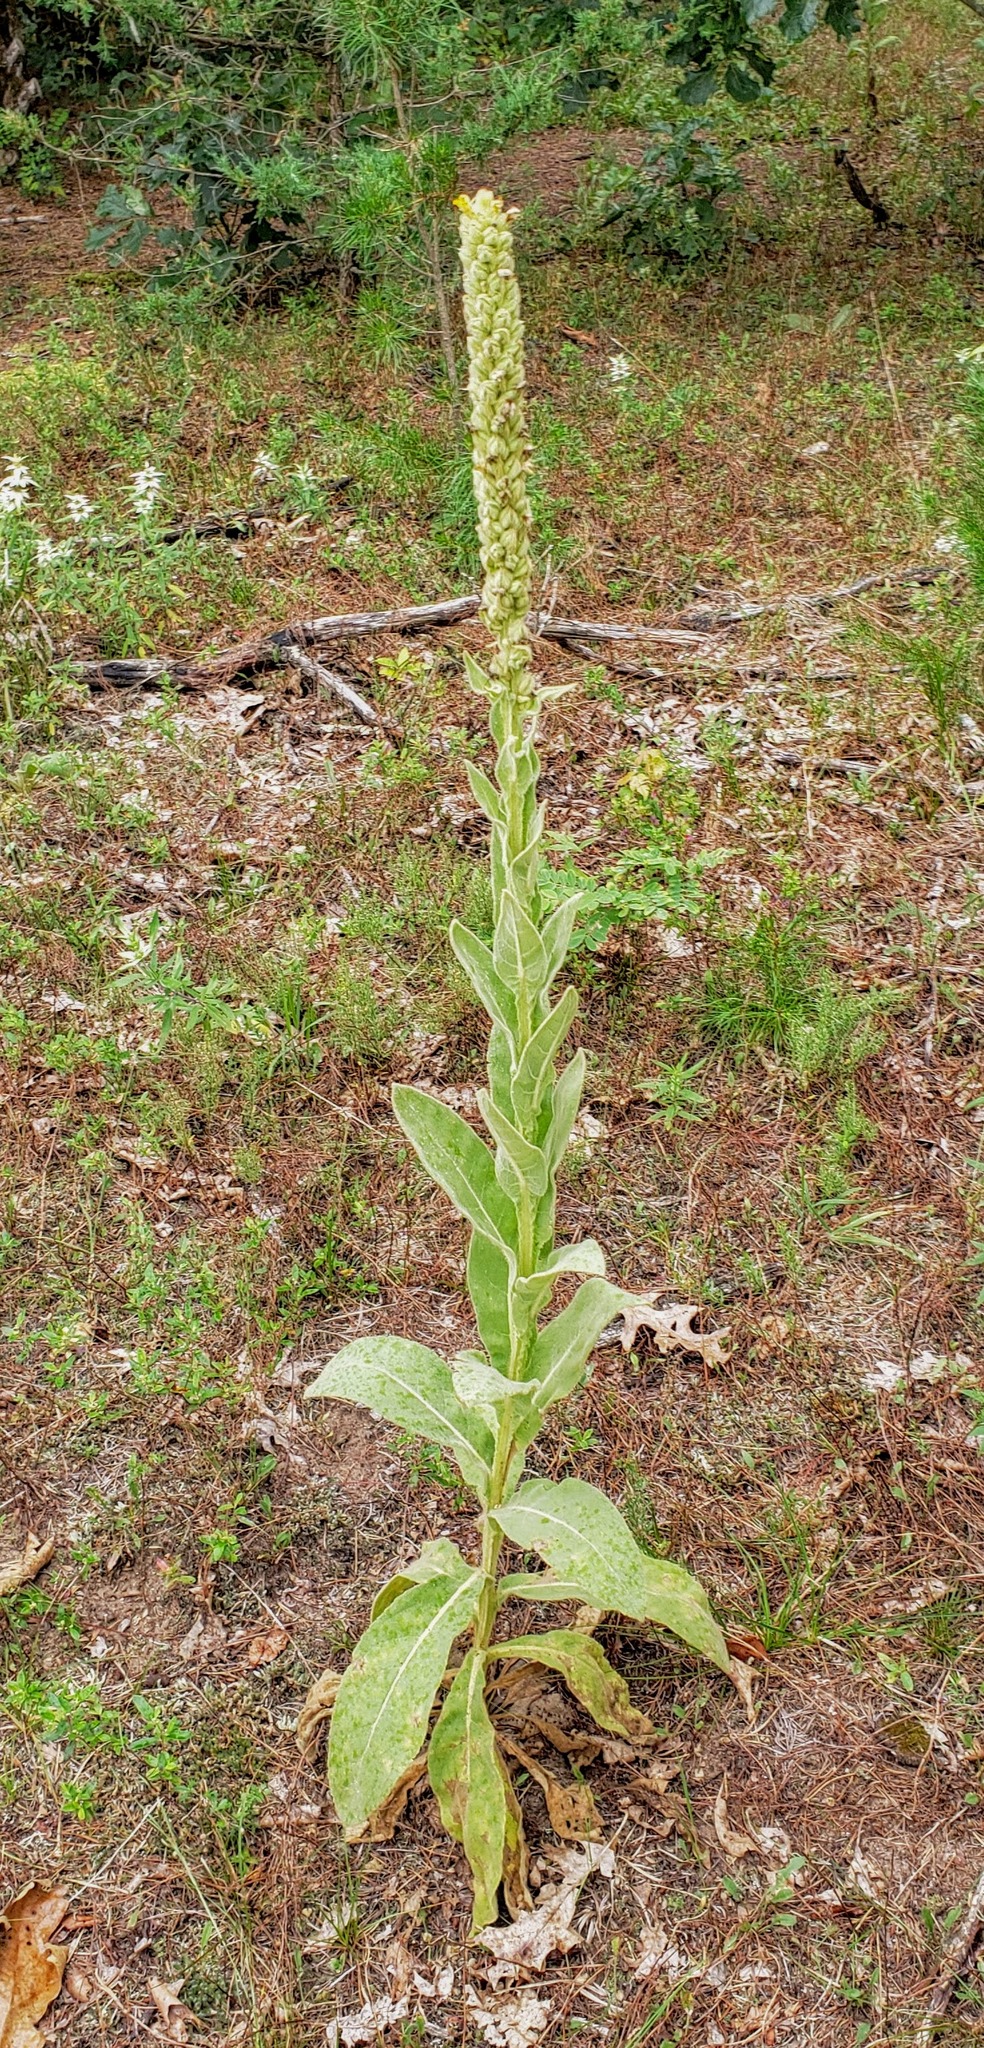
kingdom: Plantae
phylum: Tracheophyta
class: Magnoliopsida
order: Lamiales
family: Scrophulariaceae
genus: Verbascum
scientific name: Verbascum thapsus
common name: Common mullein
